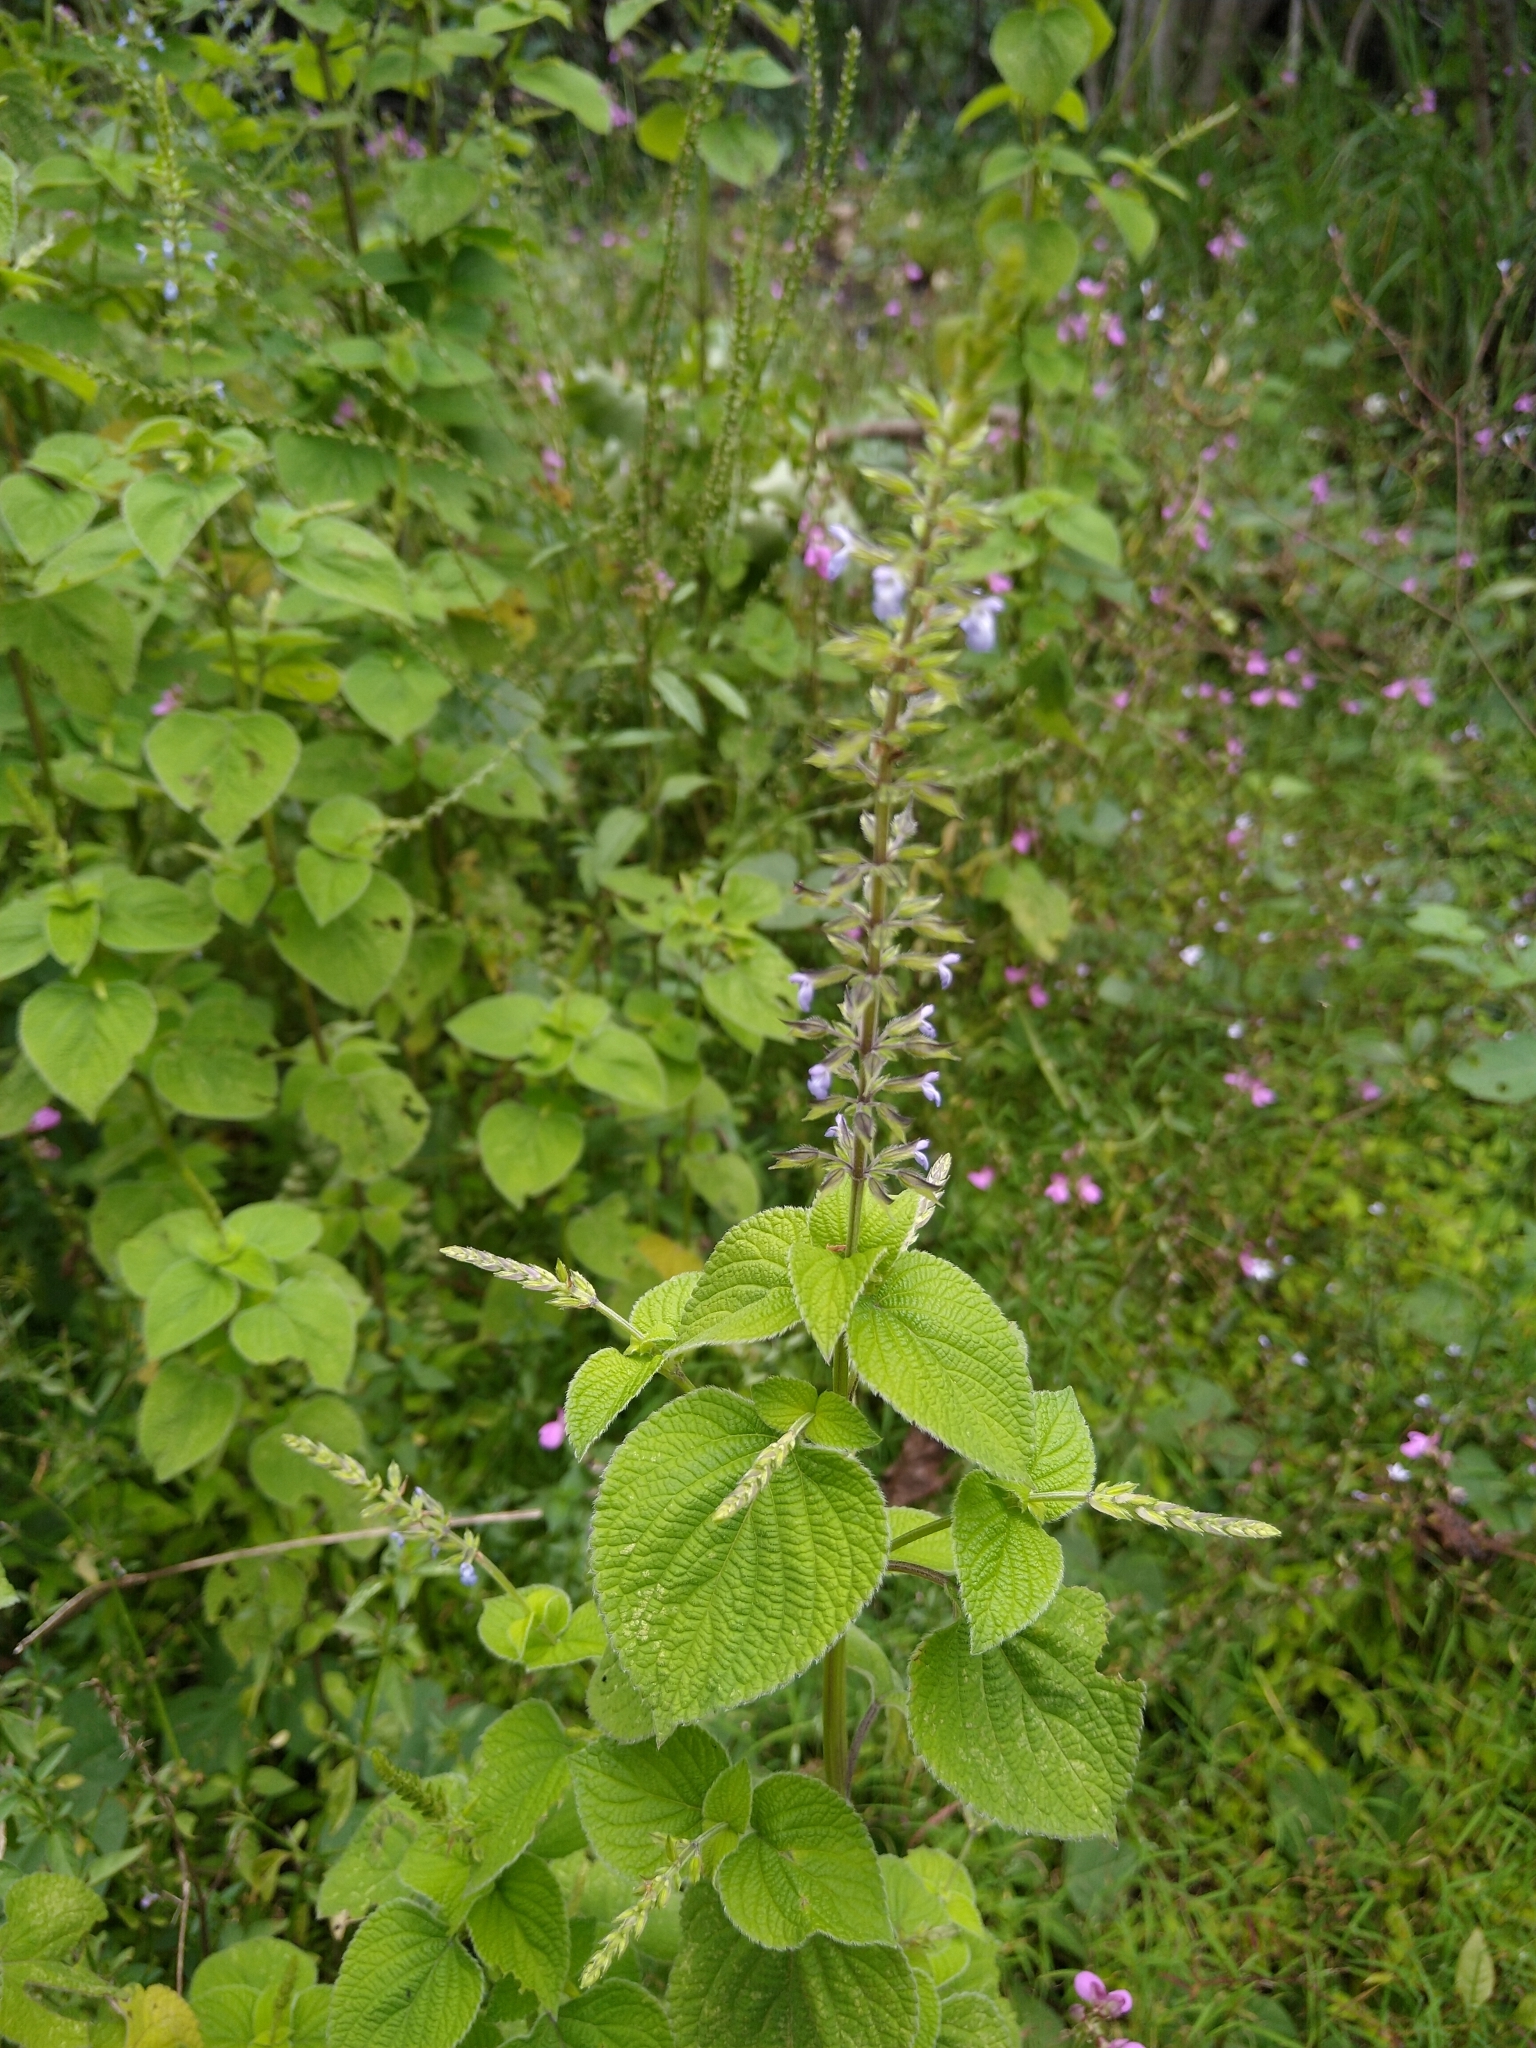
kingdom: Plantae
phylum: Tracheophyta
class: Magnoliopsida
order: Lamiales
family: Lamiaceae
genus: Salvia
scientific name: Salvia tiliifolia
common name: Lindenleaf sage
